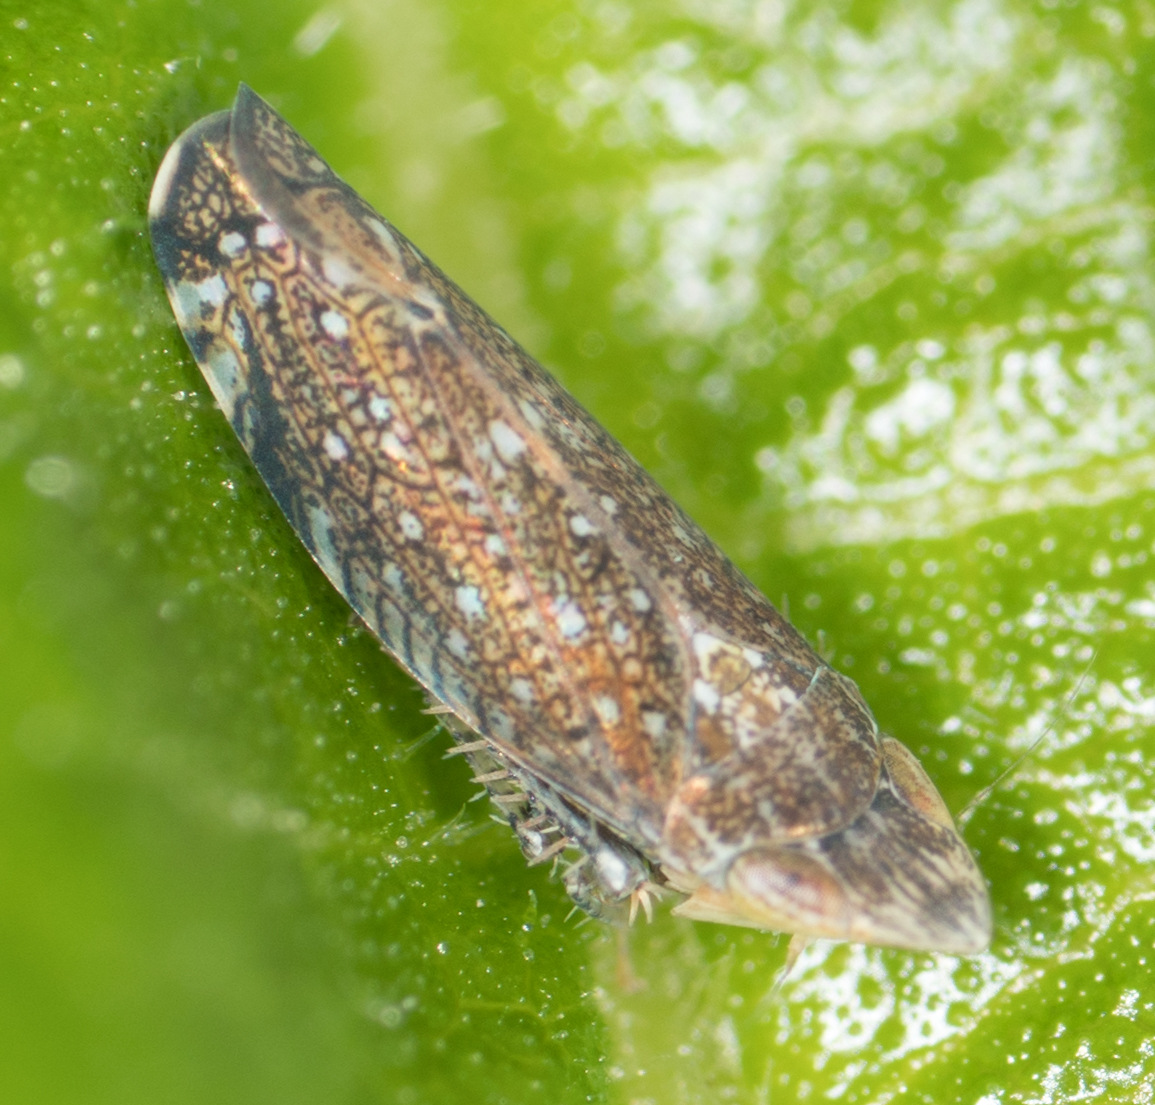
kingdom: Animalia
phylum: Arthropoda
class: Insecta
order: Hemiptera
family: Cicadellidae
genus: Scaphytopius
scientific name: Scaphytopius loricatus
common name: Yellowfaced leafhopper
